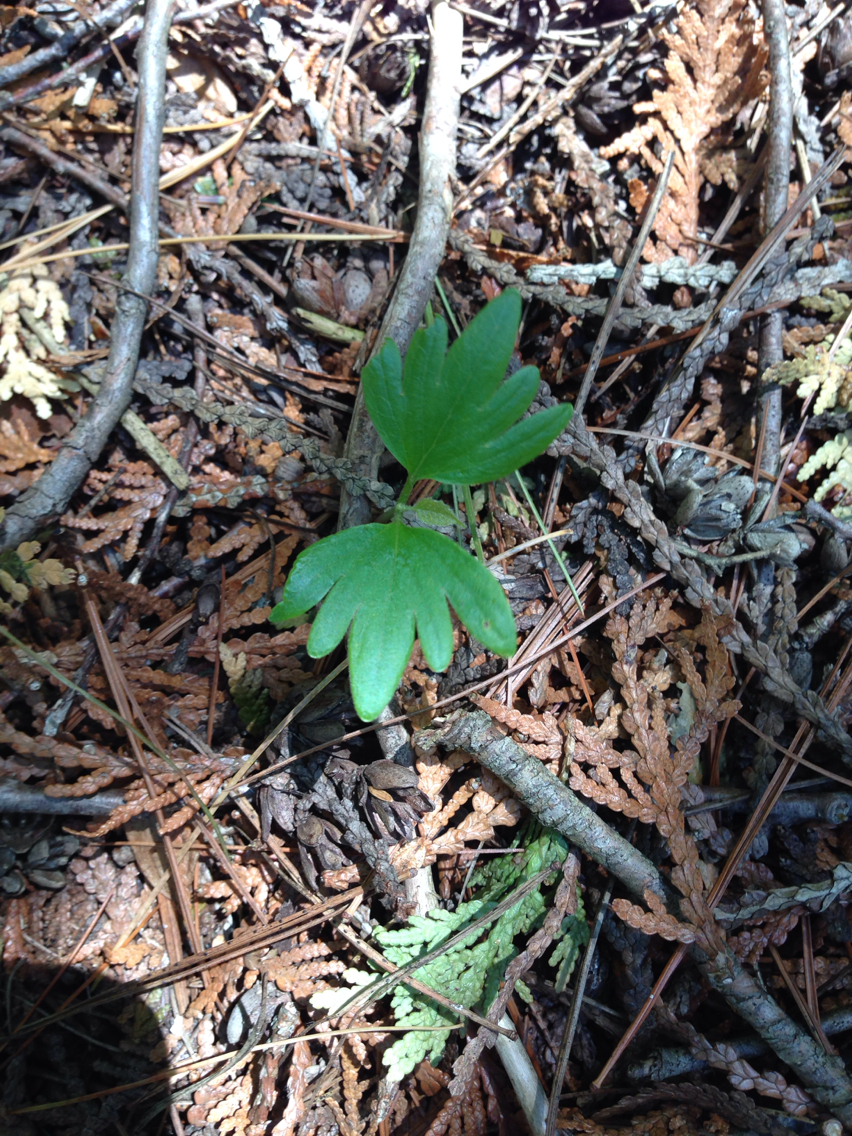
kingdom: Plantae
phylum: Tracheophyta
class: Magnoliopsida
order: Malvales
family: Malvaceae
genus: Tilia
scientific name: Tilia americana
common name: Basswood
